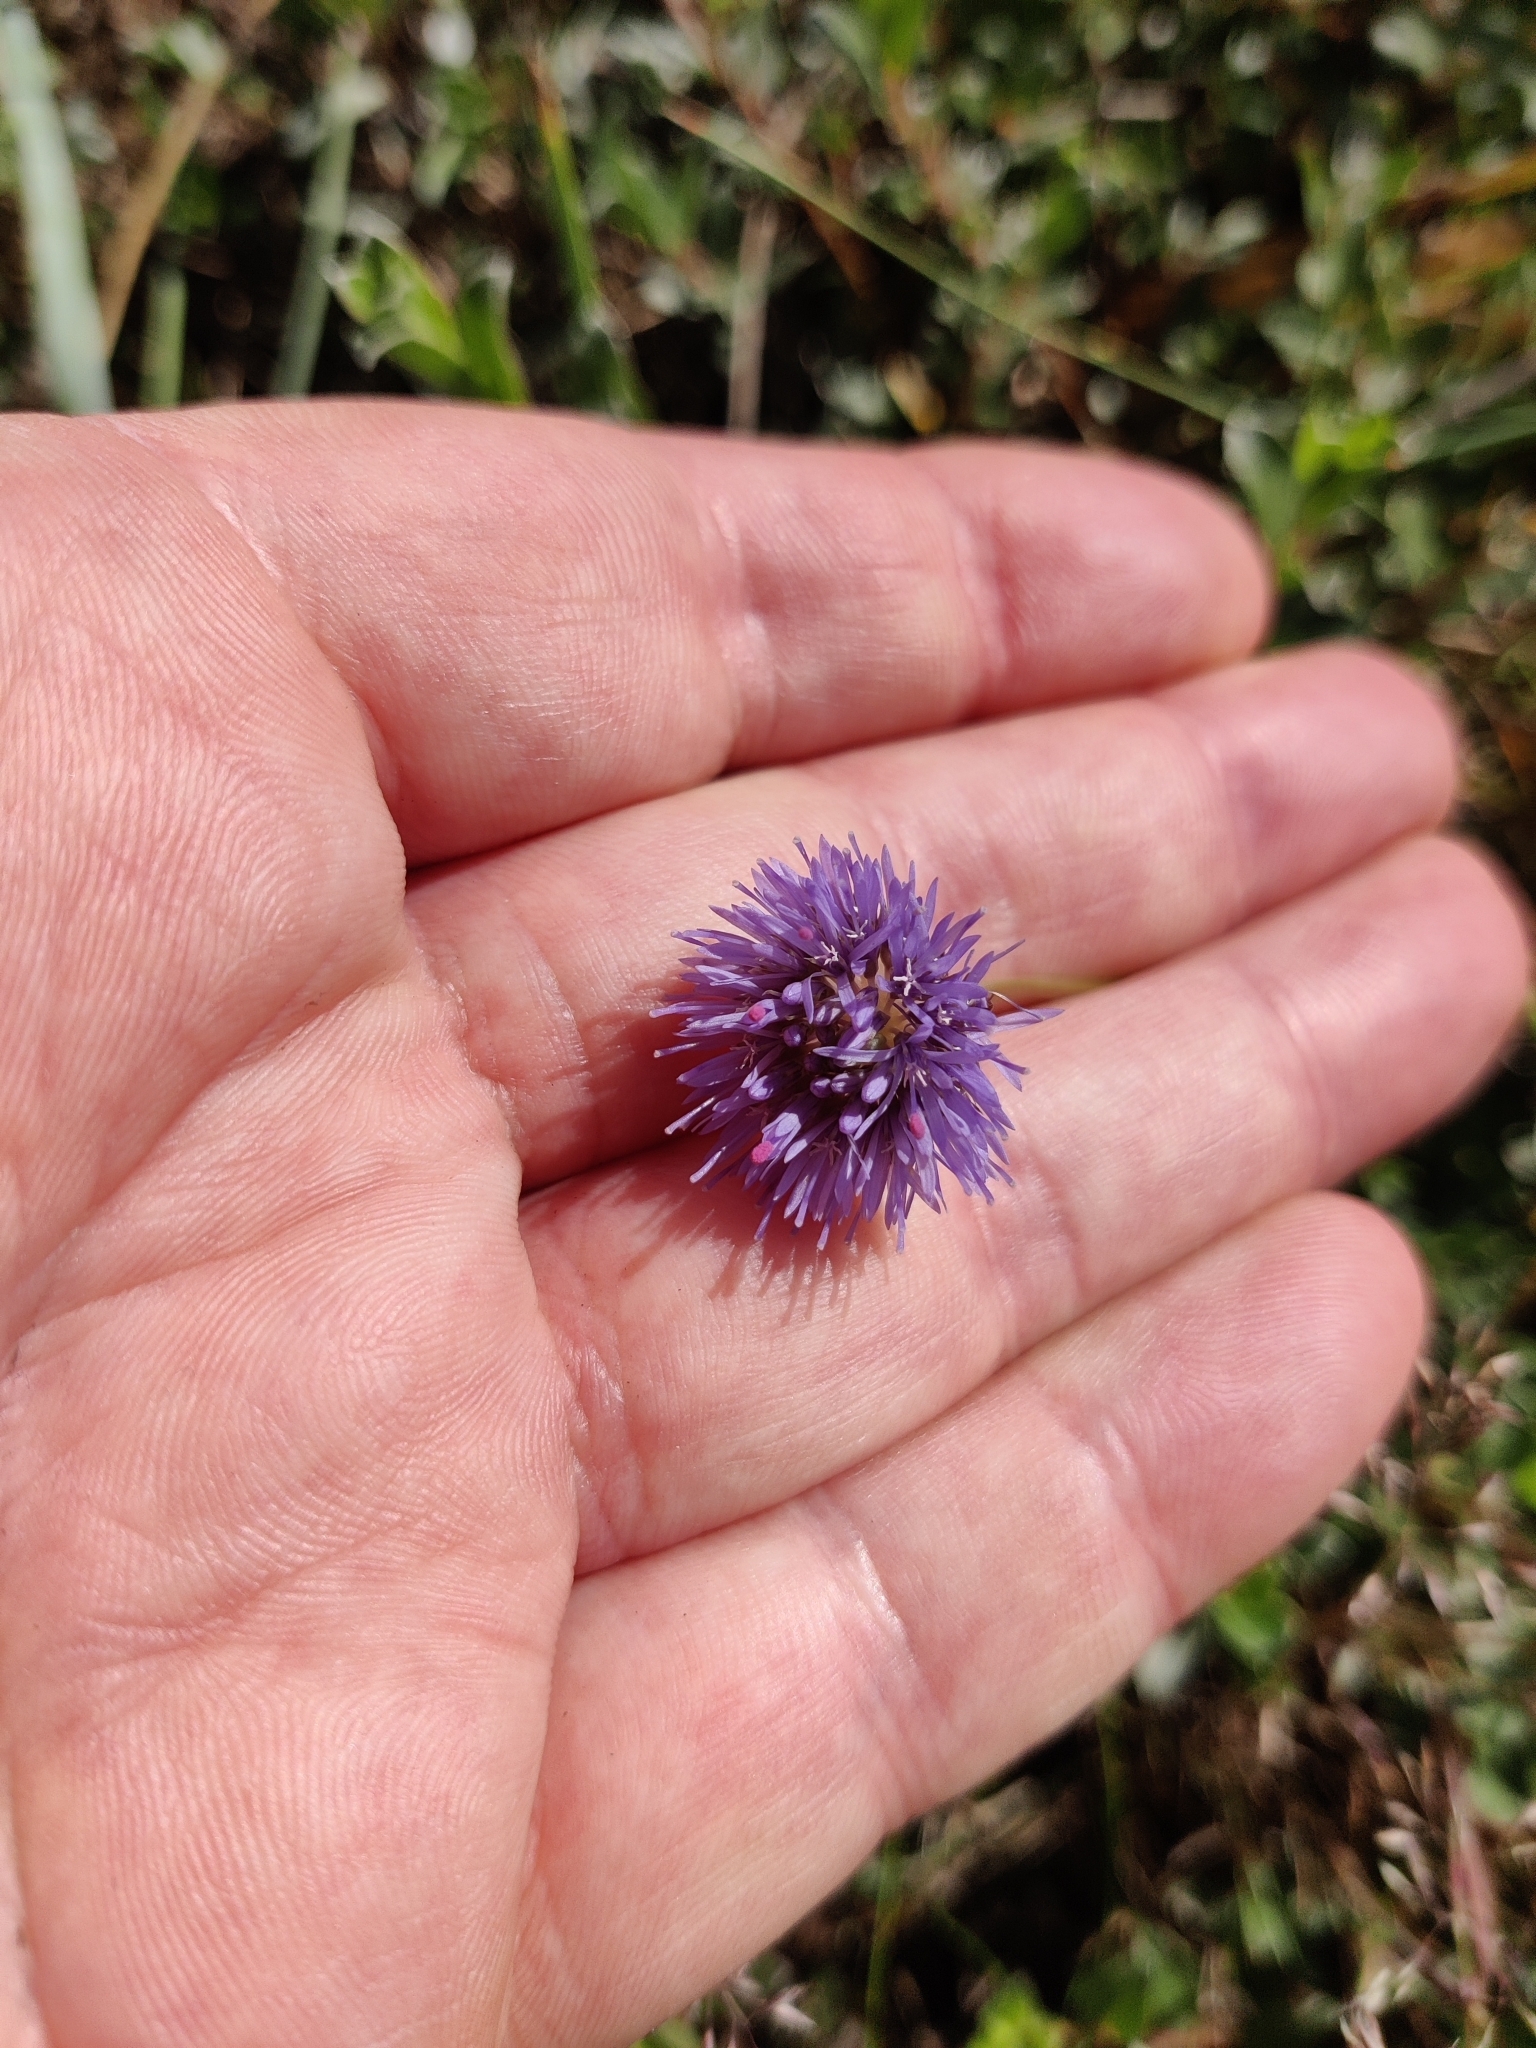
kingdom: Plantae
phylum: Tracheophyta
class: Magnoliopsida
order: Asterales
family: Campanulaceae
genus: Jasione
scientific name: Jasione montana
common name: Sheep's-bit
